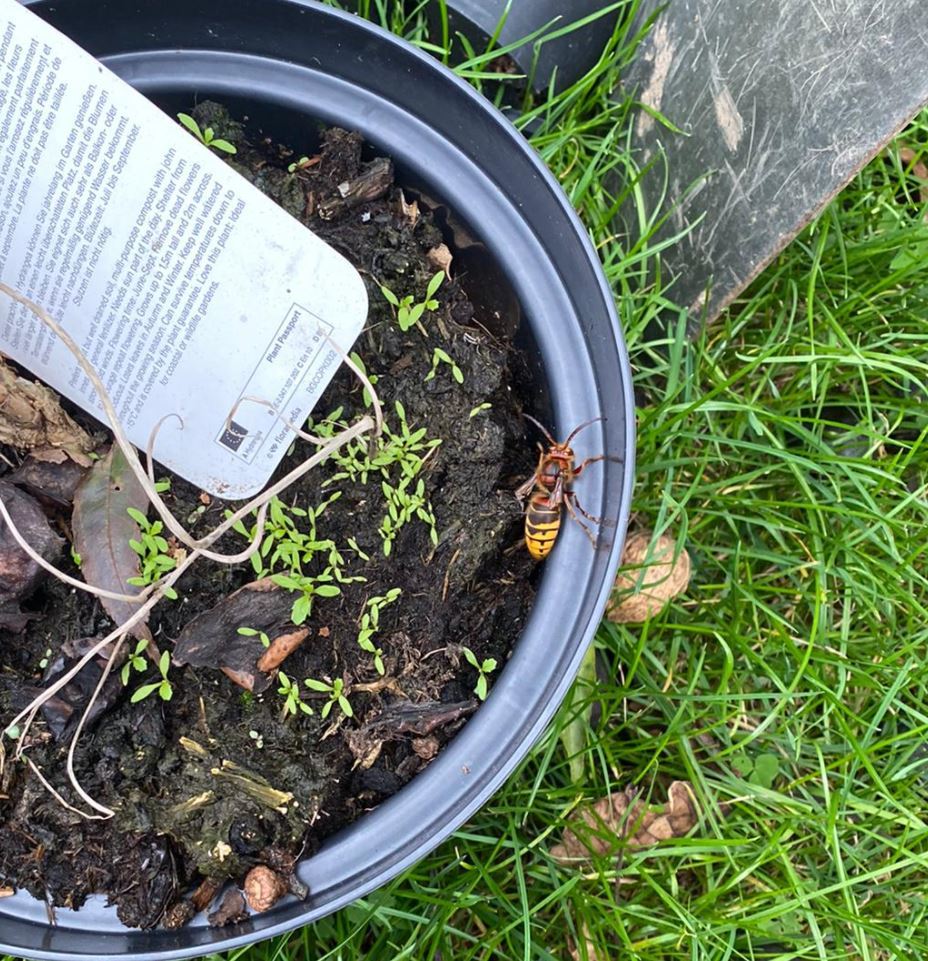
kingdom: Animalia
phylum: Arthropoda
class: Insecta
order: Hymenoptera
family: Vespidae
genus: Vespa
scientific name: Vespa crabro
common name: Hornet
